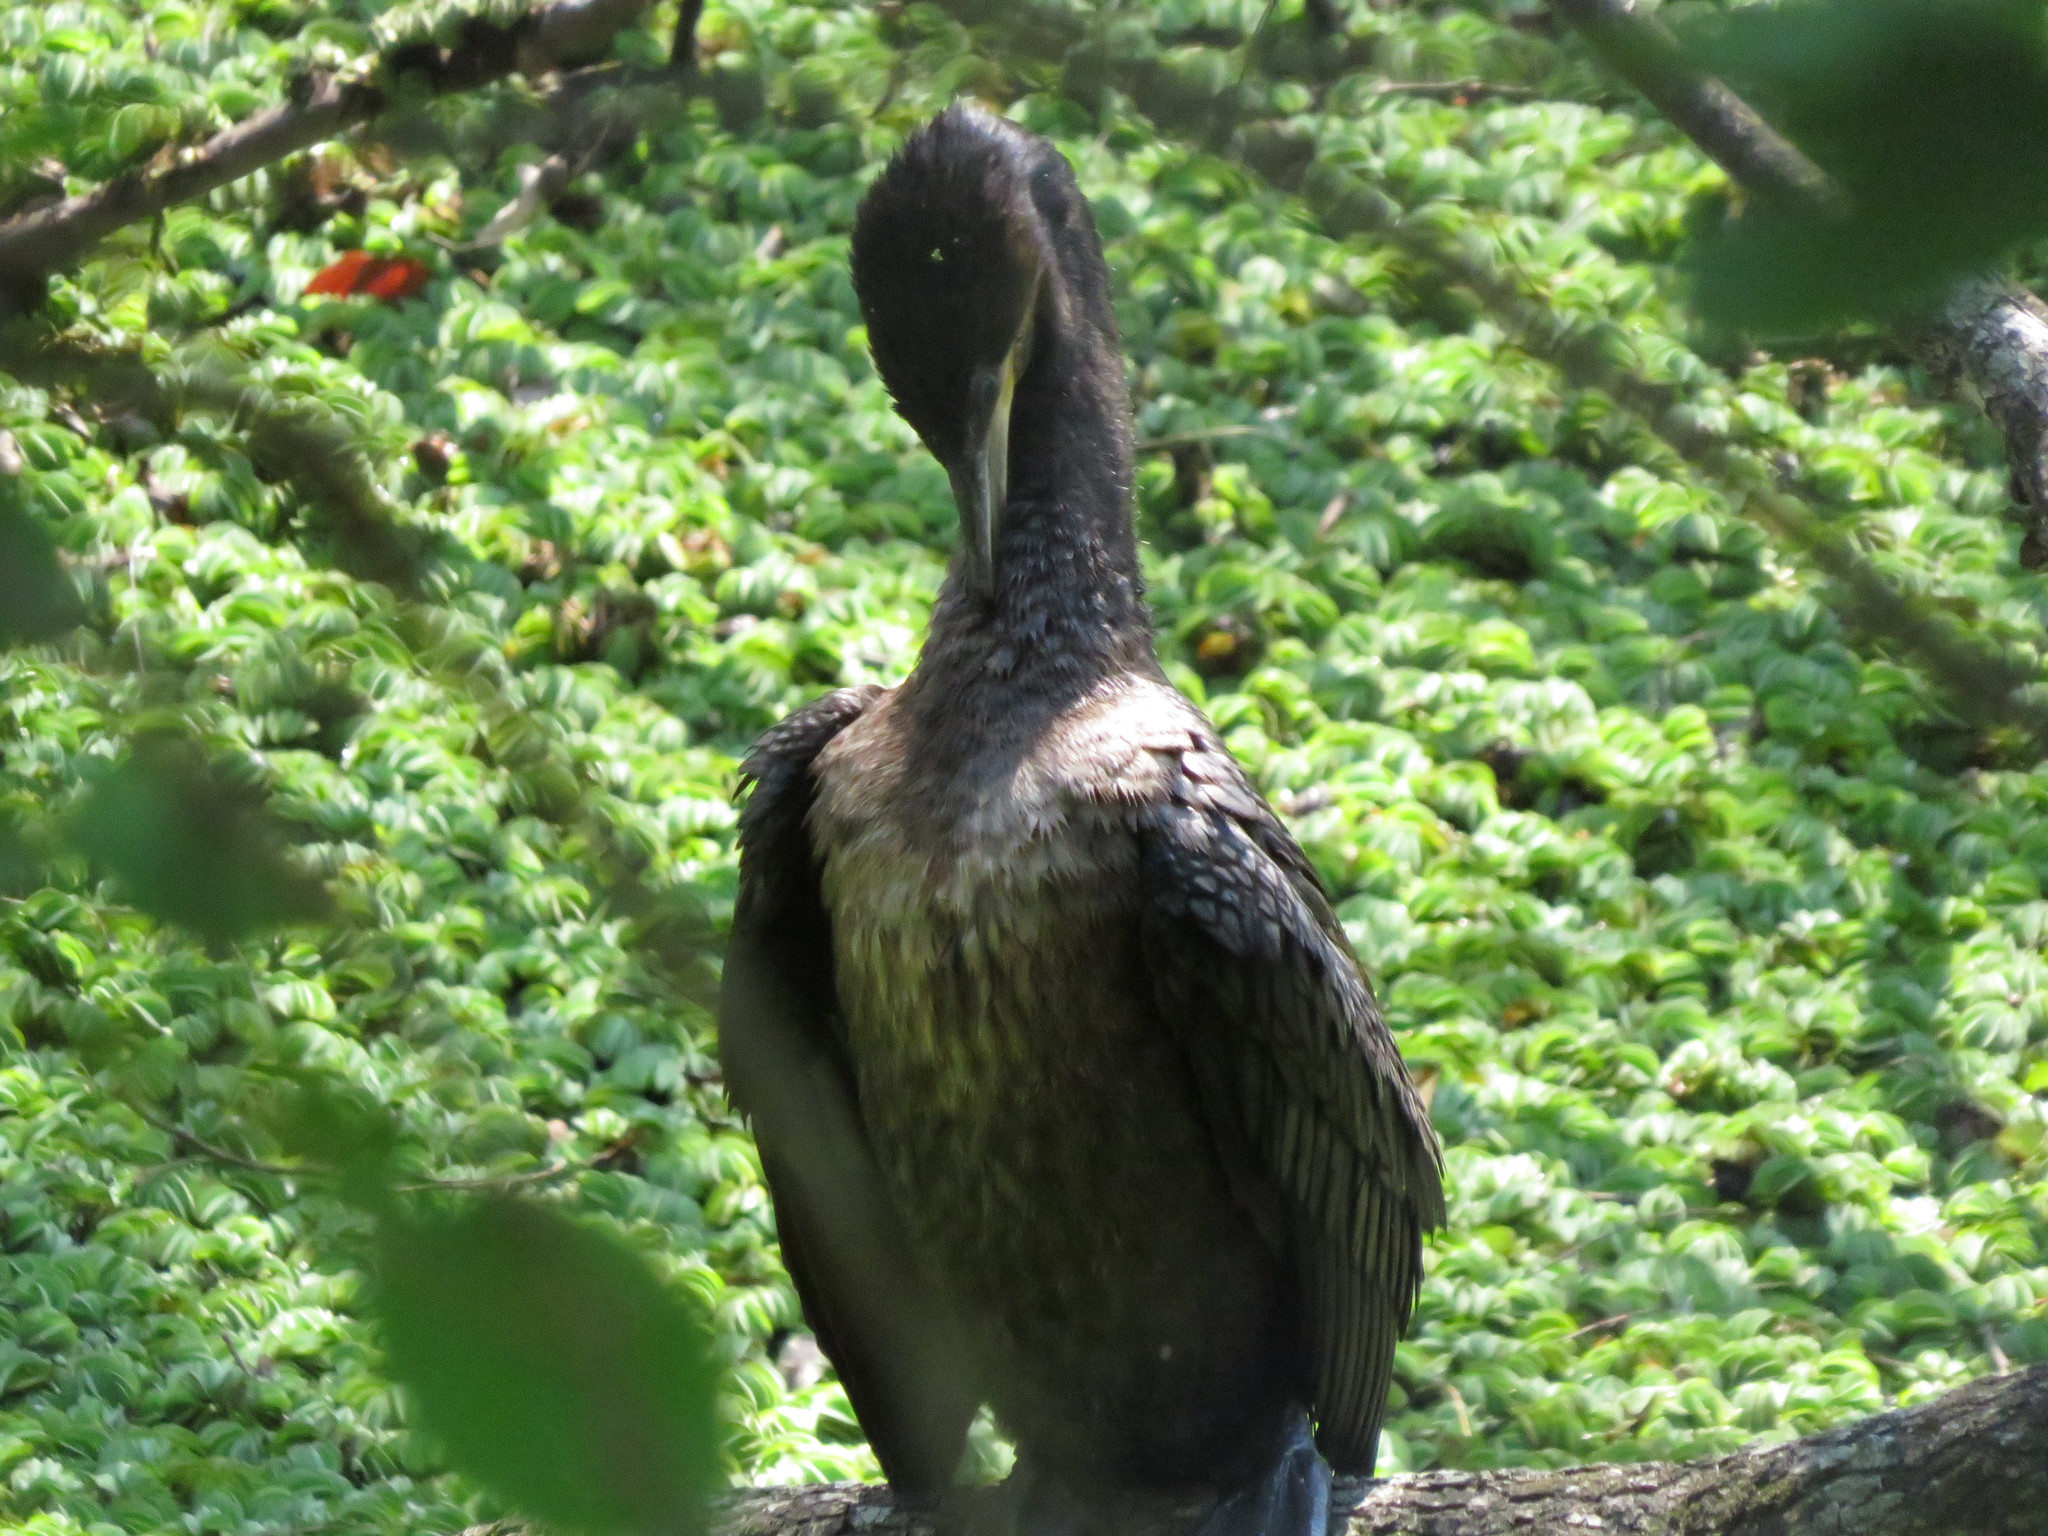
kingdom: Animalia
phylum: Chordata
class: Aves
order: Suliformes
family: Phalacrocoracidae
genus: Phalacrocorax
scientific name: Phalacrocorax brasilianus
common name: Neotropic cormorant
